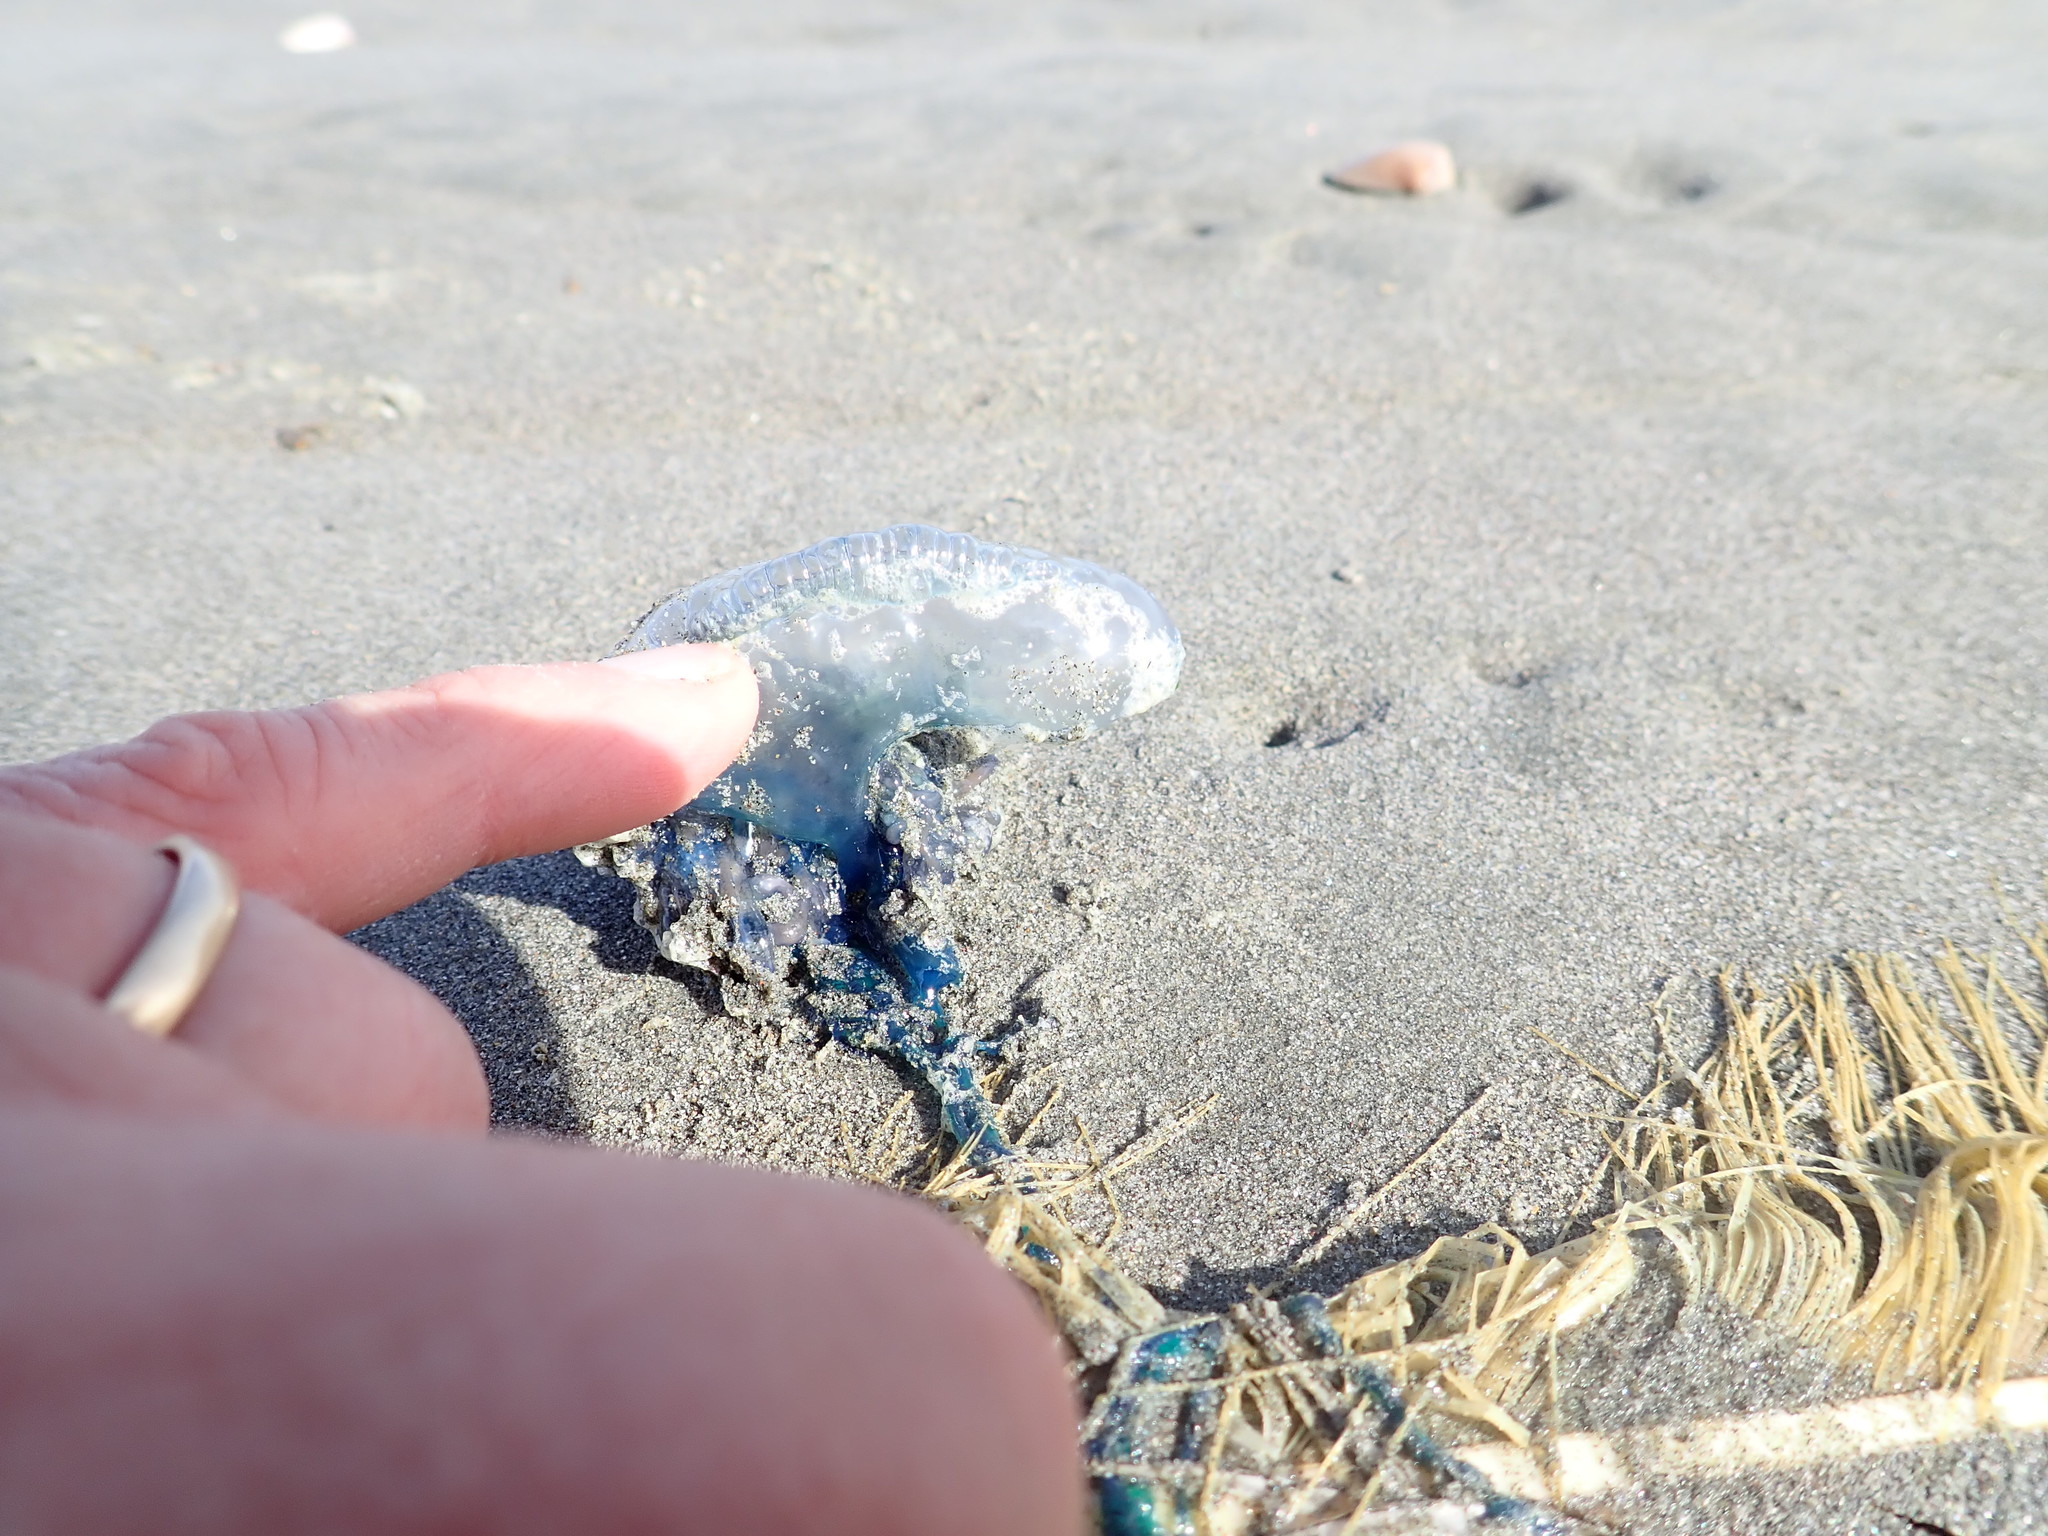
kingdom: Animalia
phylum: Cnidaria
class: Hydrozoa
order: Siphonophorae
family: Physaliidae
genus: Physalia
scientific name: Physalia physalis
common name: Portuguese man-of-war
